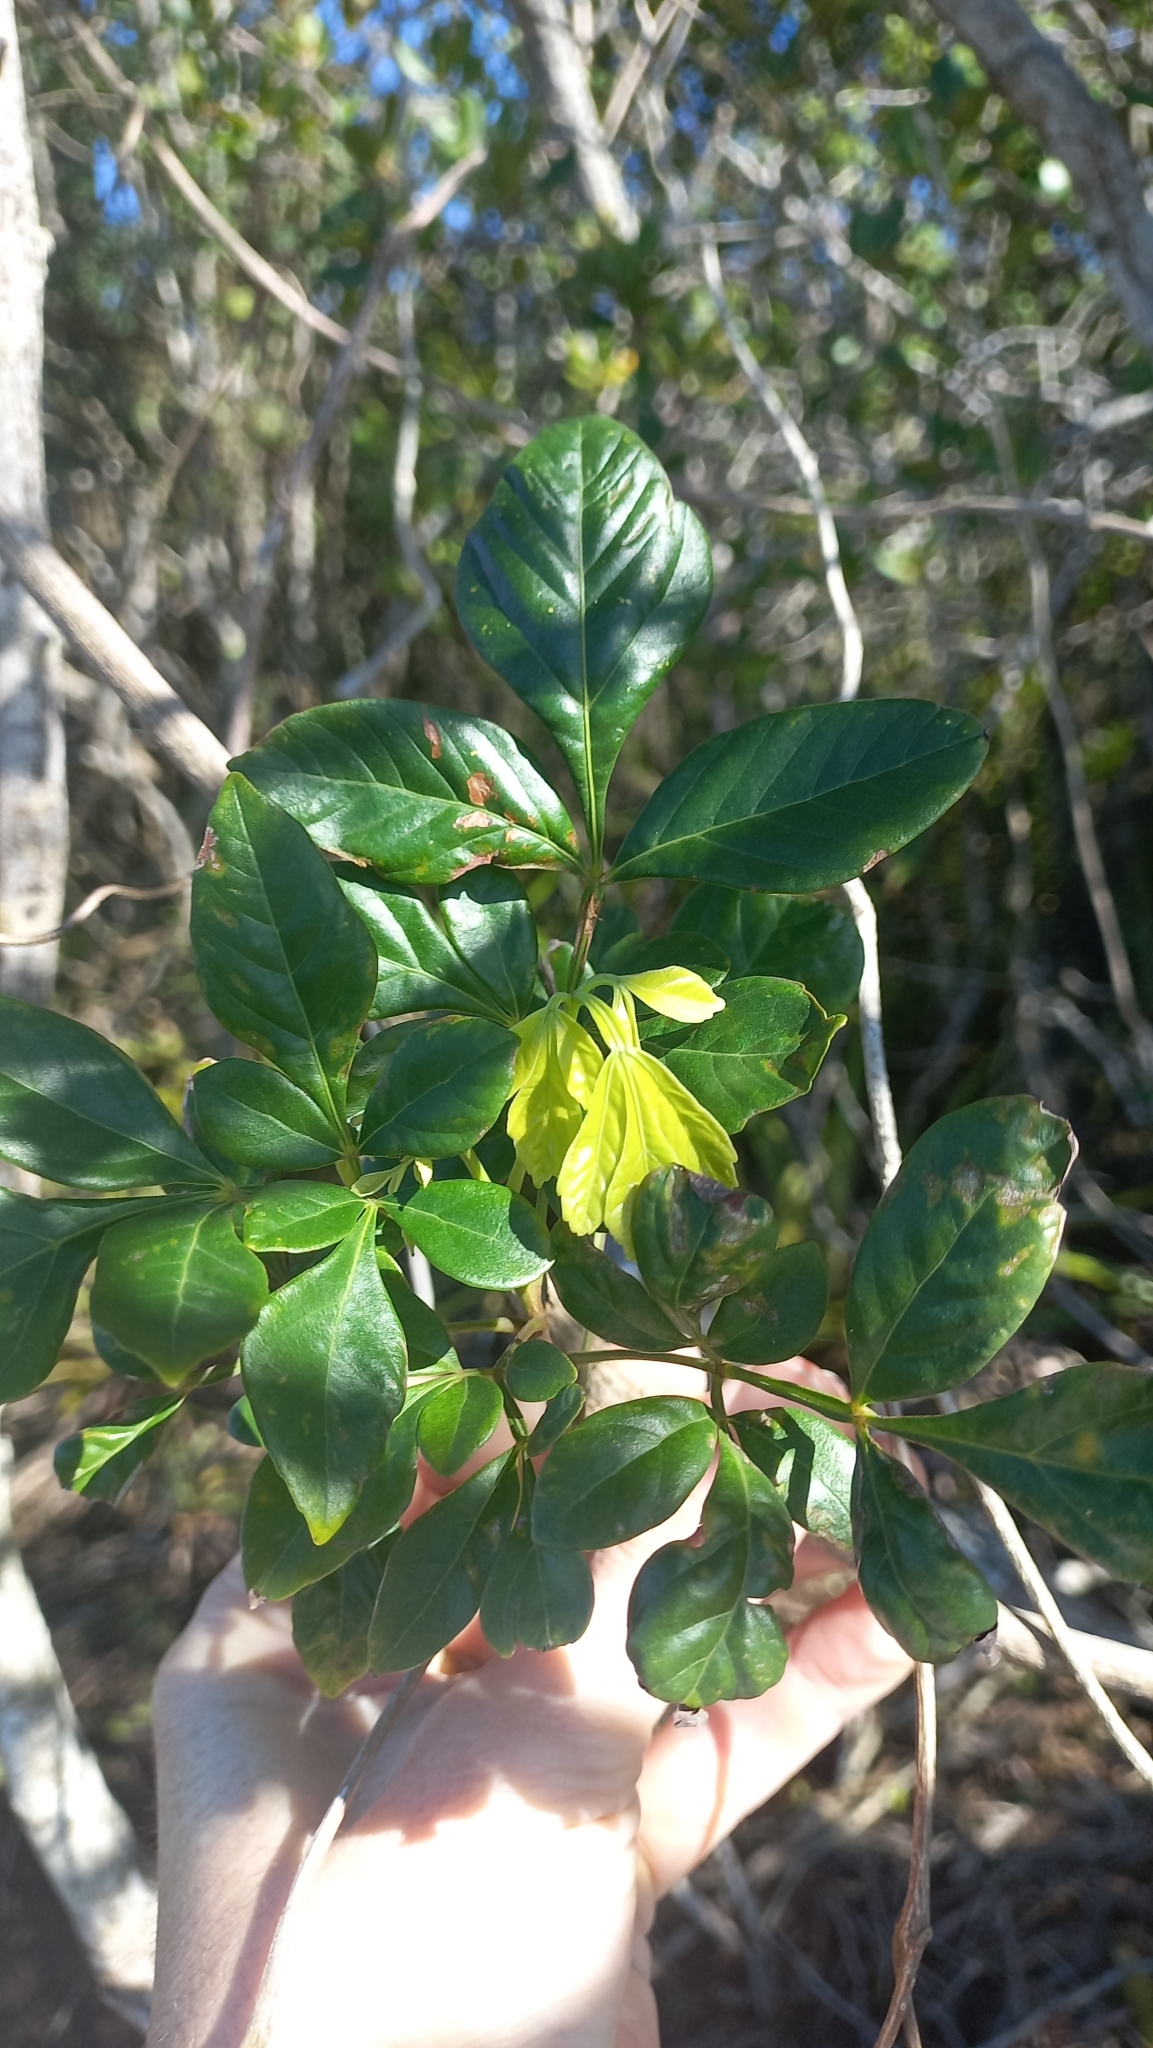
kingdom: Plantae
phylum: Tracheophyta
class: Magnoliopsida
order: Sapindales
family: Sapindaceae
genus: Paullinia
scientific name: Paullinia trigonia
